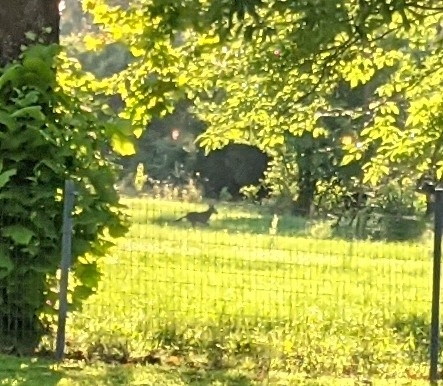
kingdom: Animalia
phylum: Chordata
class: Mammalia
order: Carnivora
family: Canidae
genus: Canis
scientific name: Canis latrans
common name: Coyote
